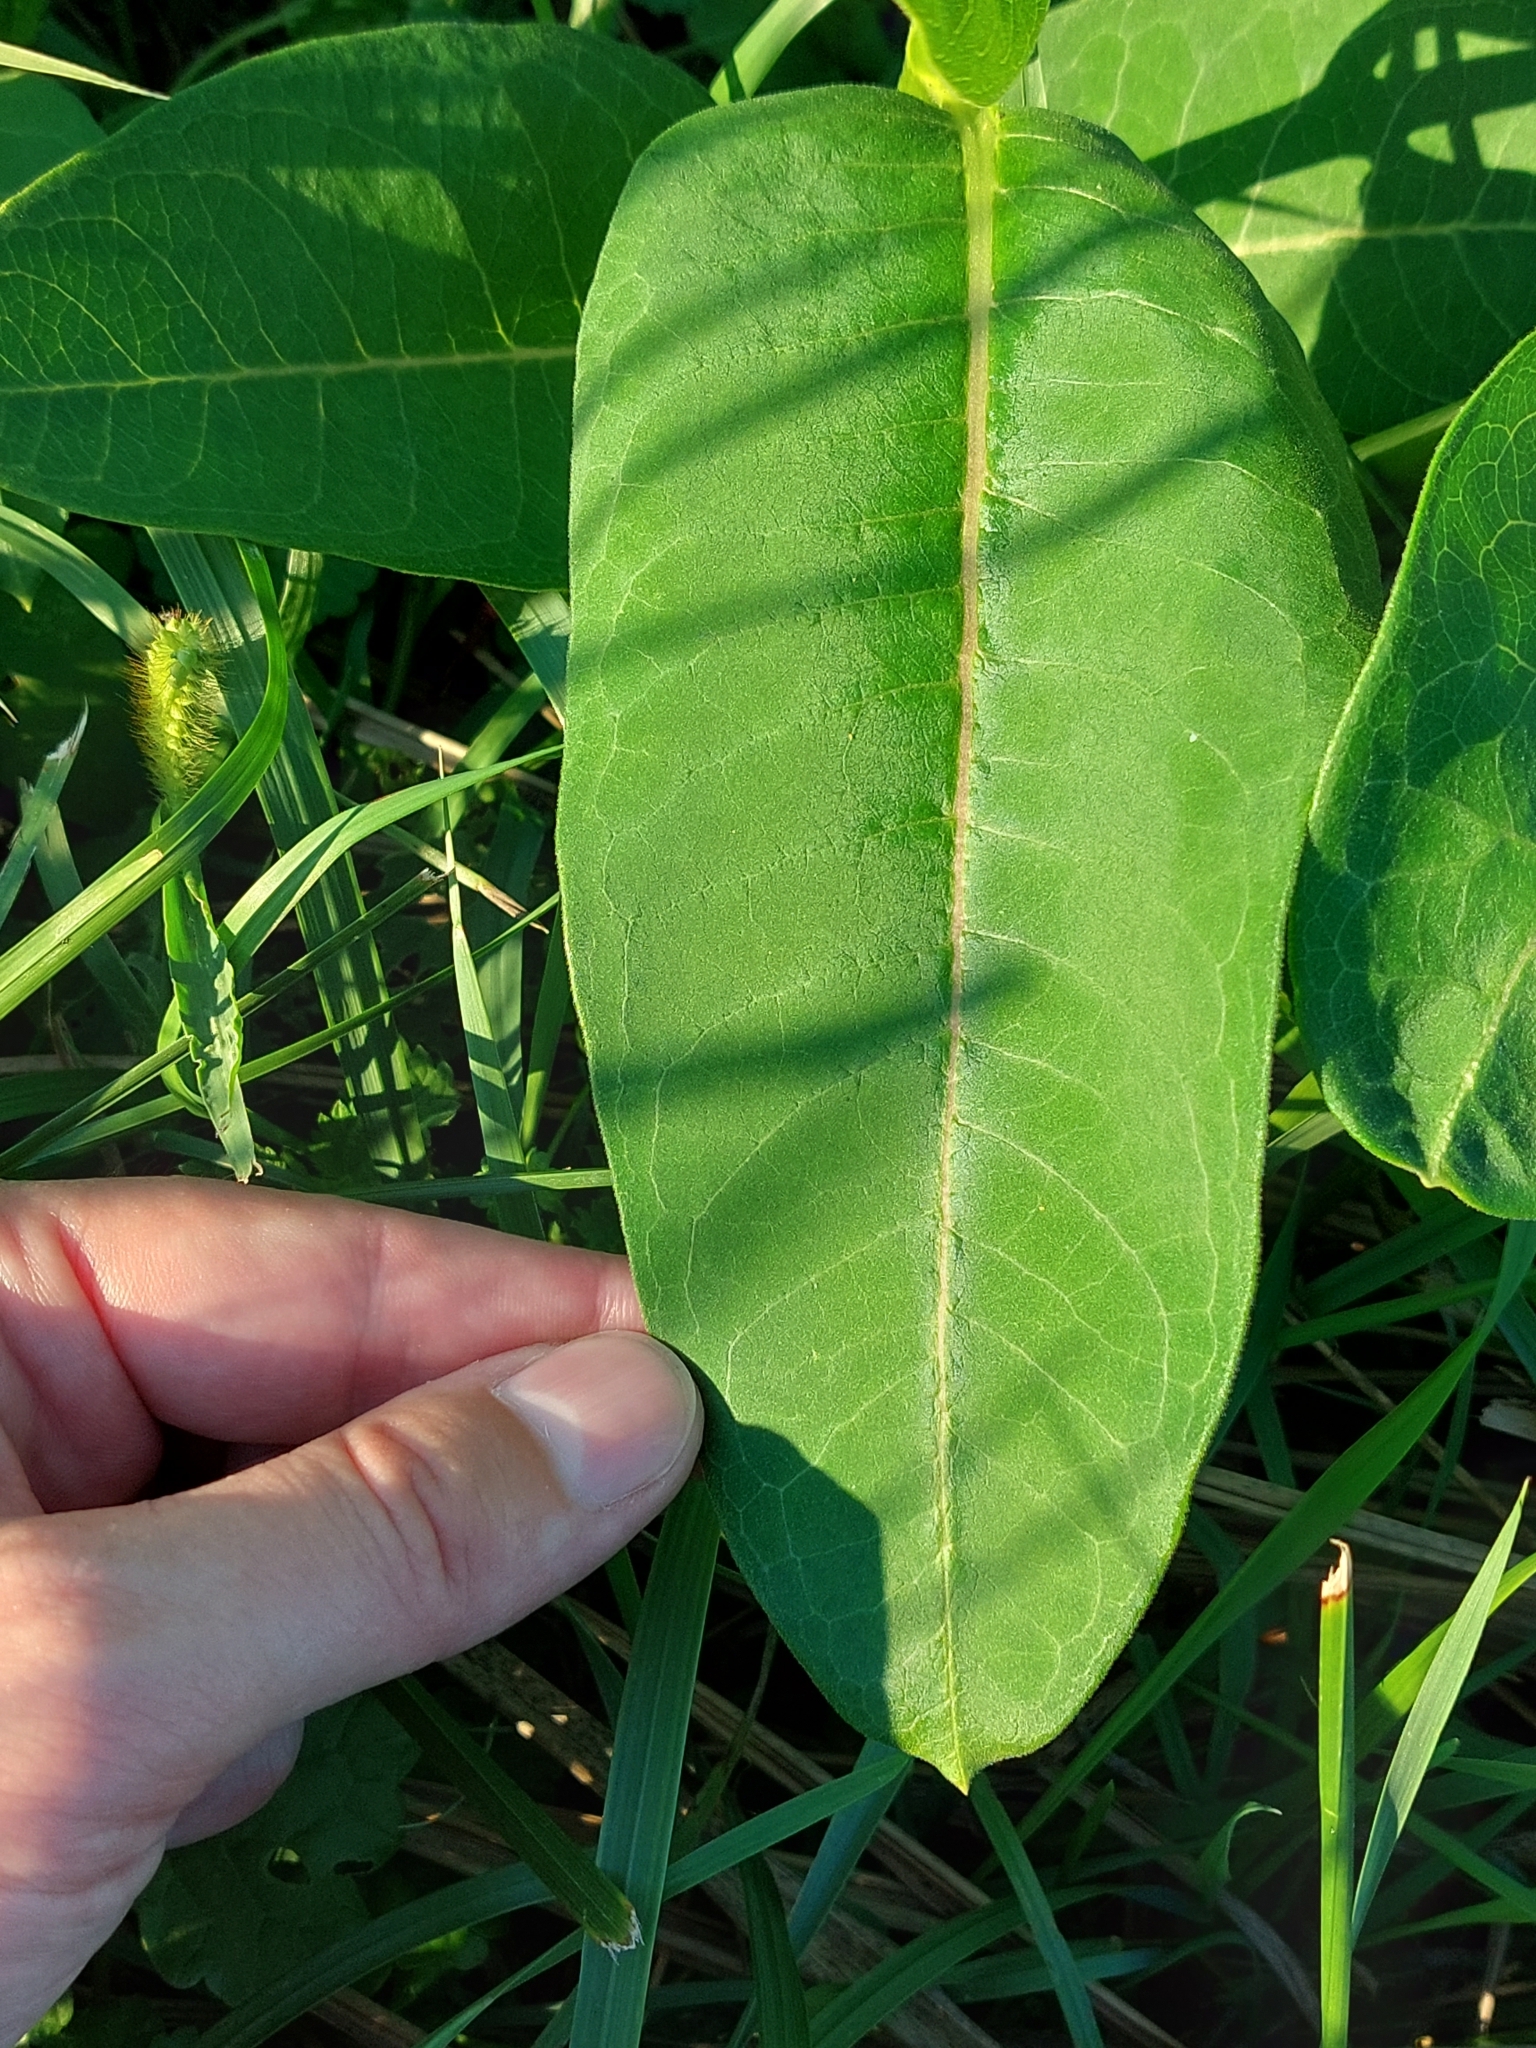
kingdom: Plantae
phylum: Tracheophyta
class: Magnoliopsida
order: Gentianales
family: Apocynaceae
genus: Asclepias
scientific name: Asclepias syriaca
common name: Common milkweed
